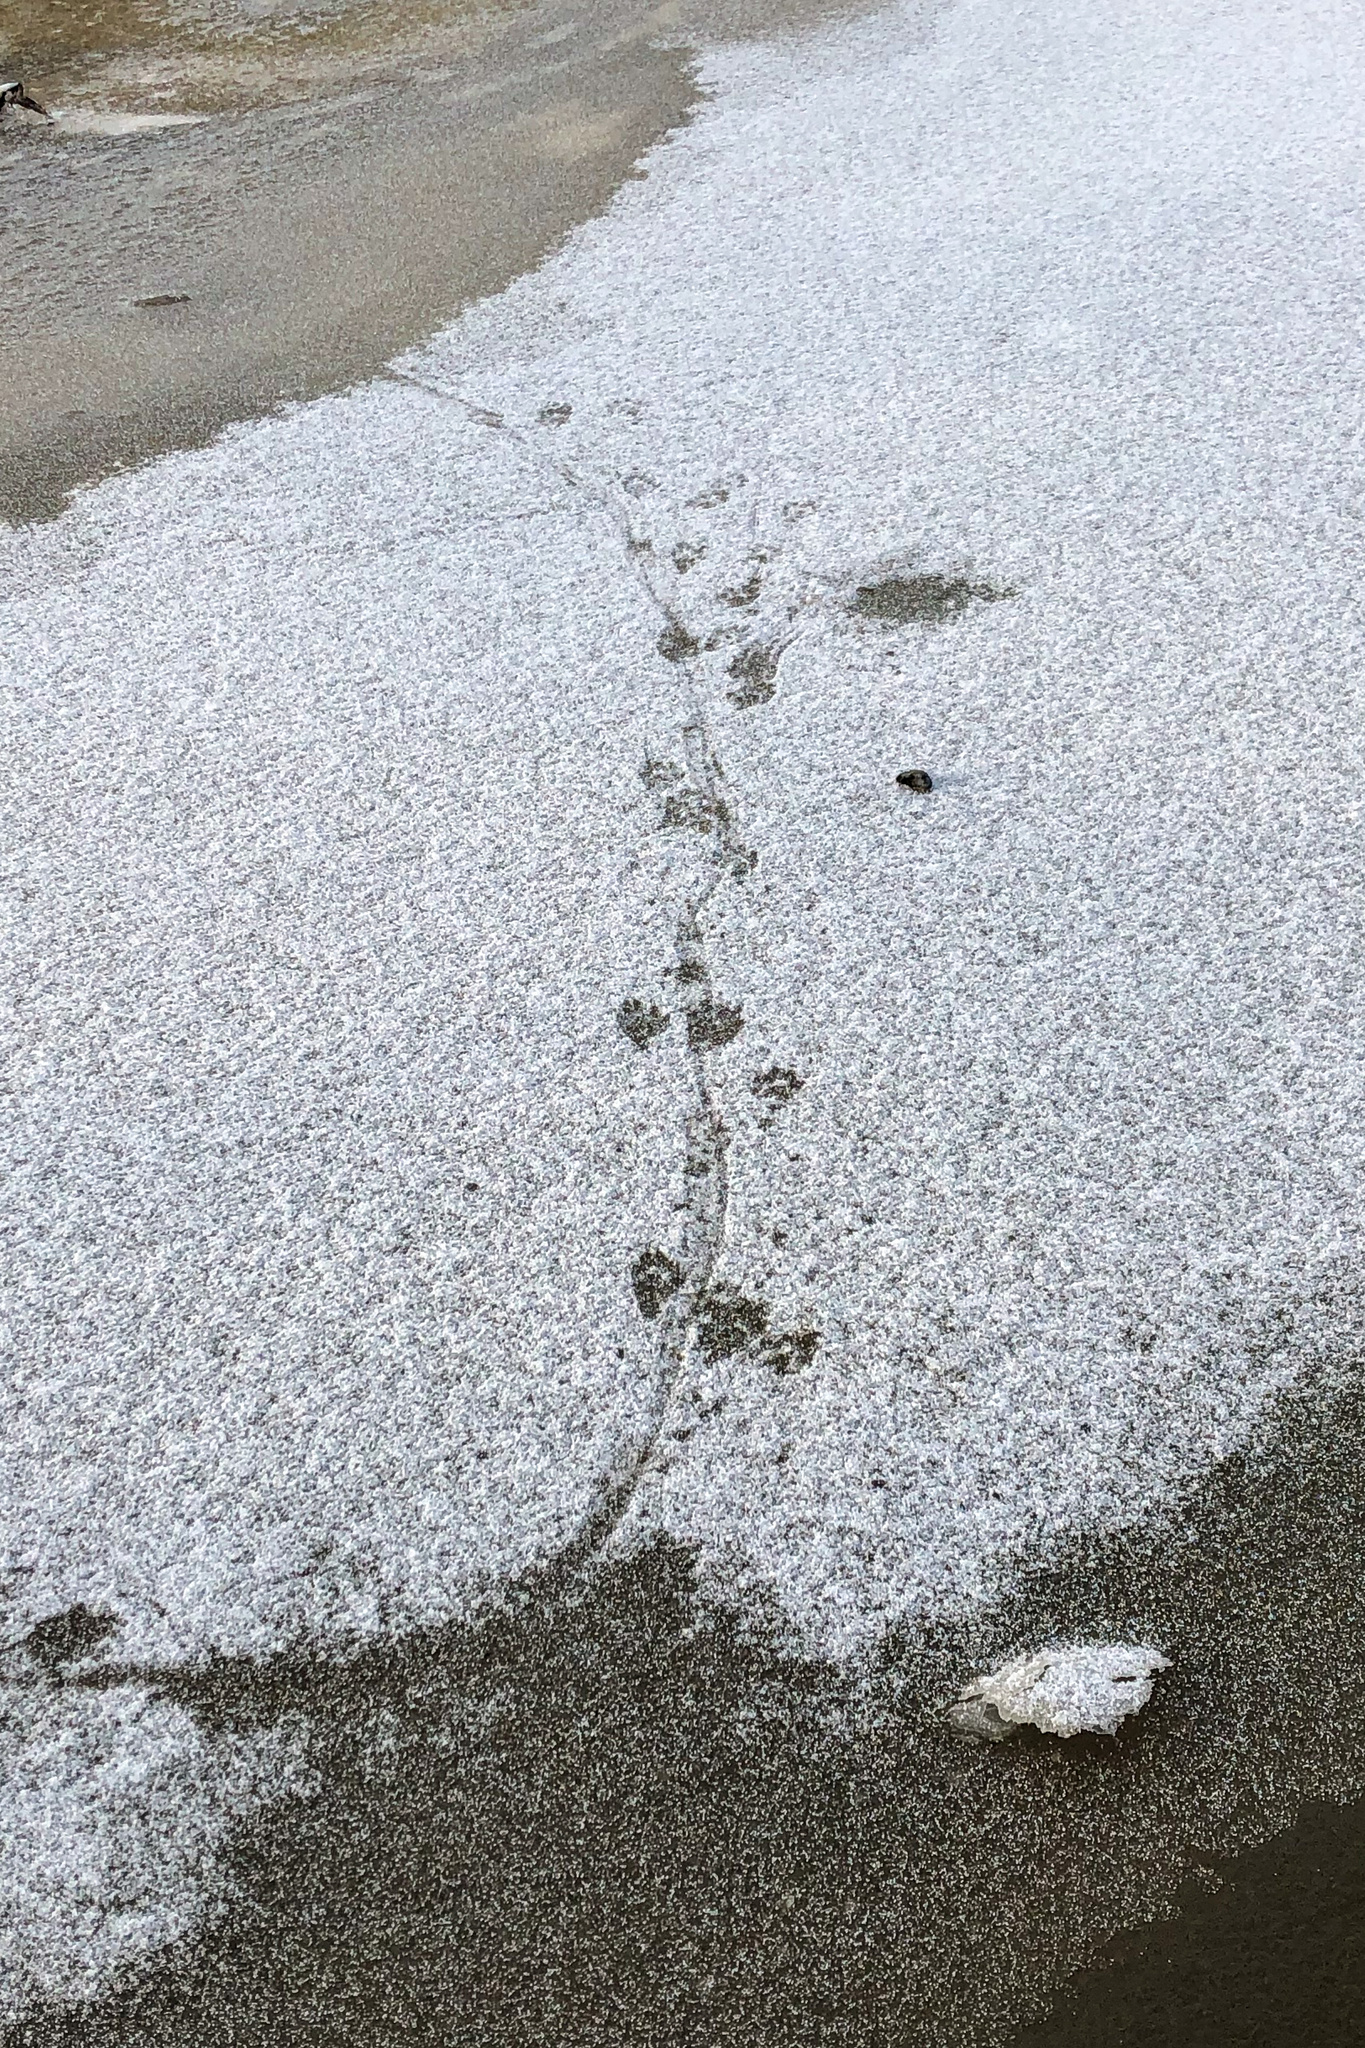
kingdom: Animalia
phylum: Chordata
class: Mammalia
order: Carnivora
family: Mustelidae
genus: Lutra
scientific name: Lutra lutra
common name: European otter
